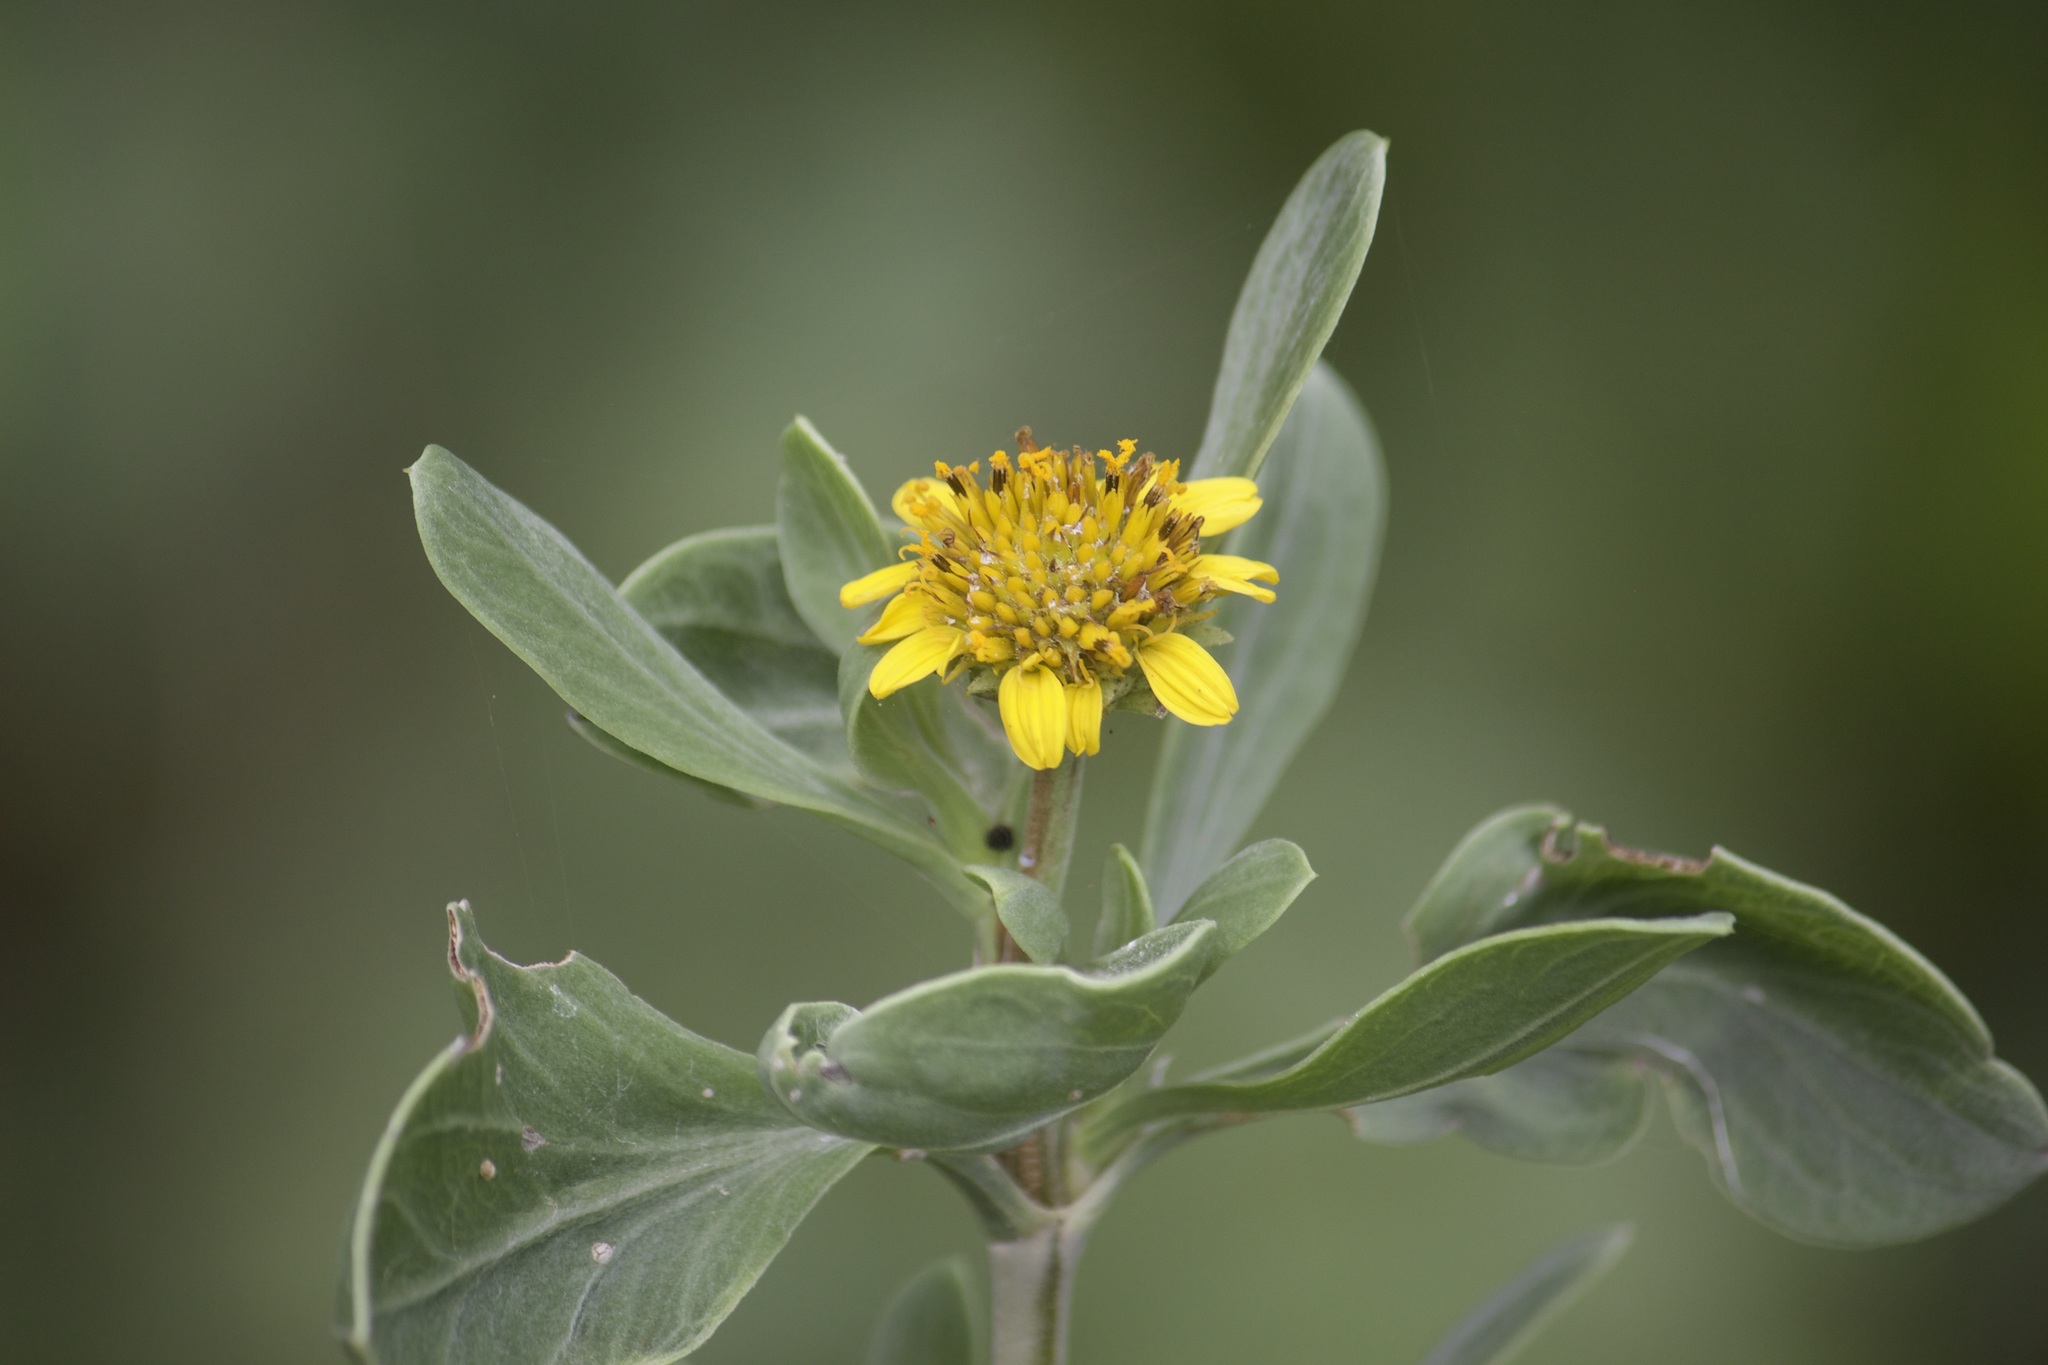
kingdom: Plantae
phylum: Tracheophyta
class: Magnoliopsida
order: Asterales
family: Asteraceae
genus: Borrichia
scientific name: Borrichia frutescens
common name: Sea oxeye
